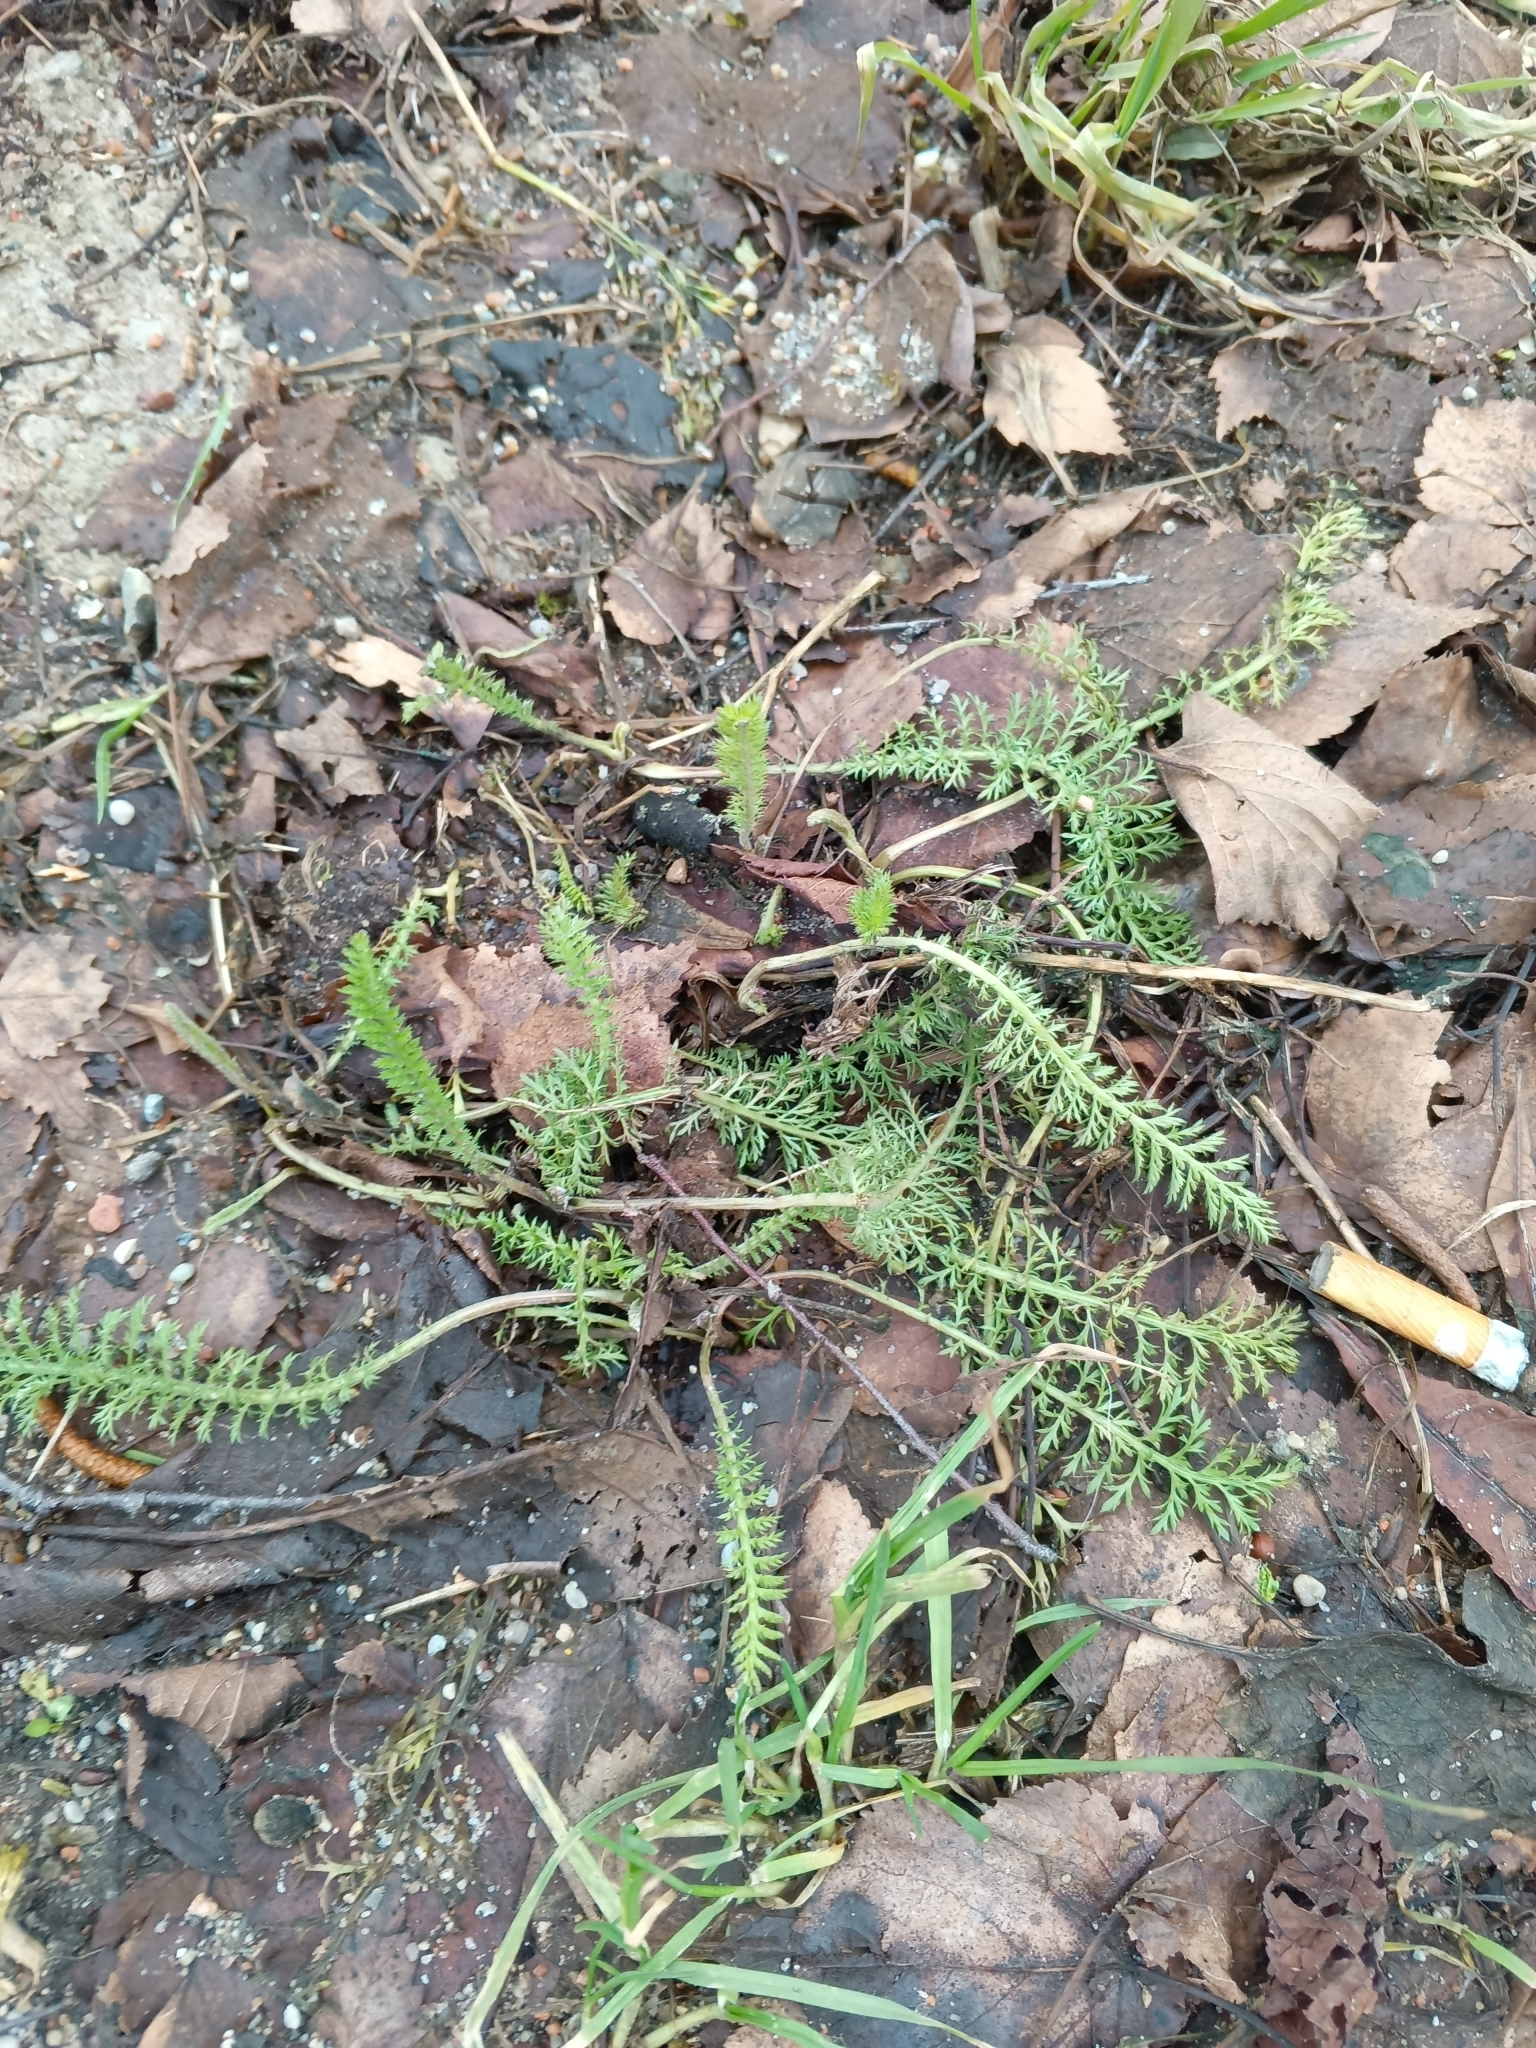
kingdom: Plantae
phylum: Tracheophyta
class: Magnoliopsida
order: Asterales
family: Asteraceae
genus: Achillea
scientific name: Achillea millefolium
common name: Yarrow
